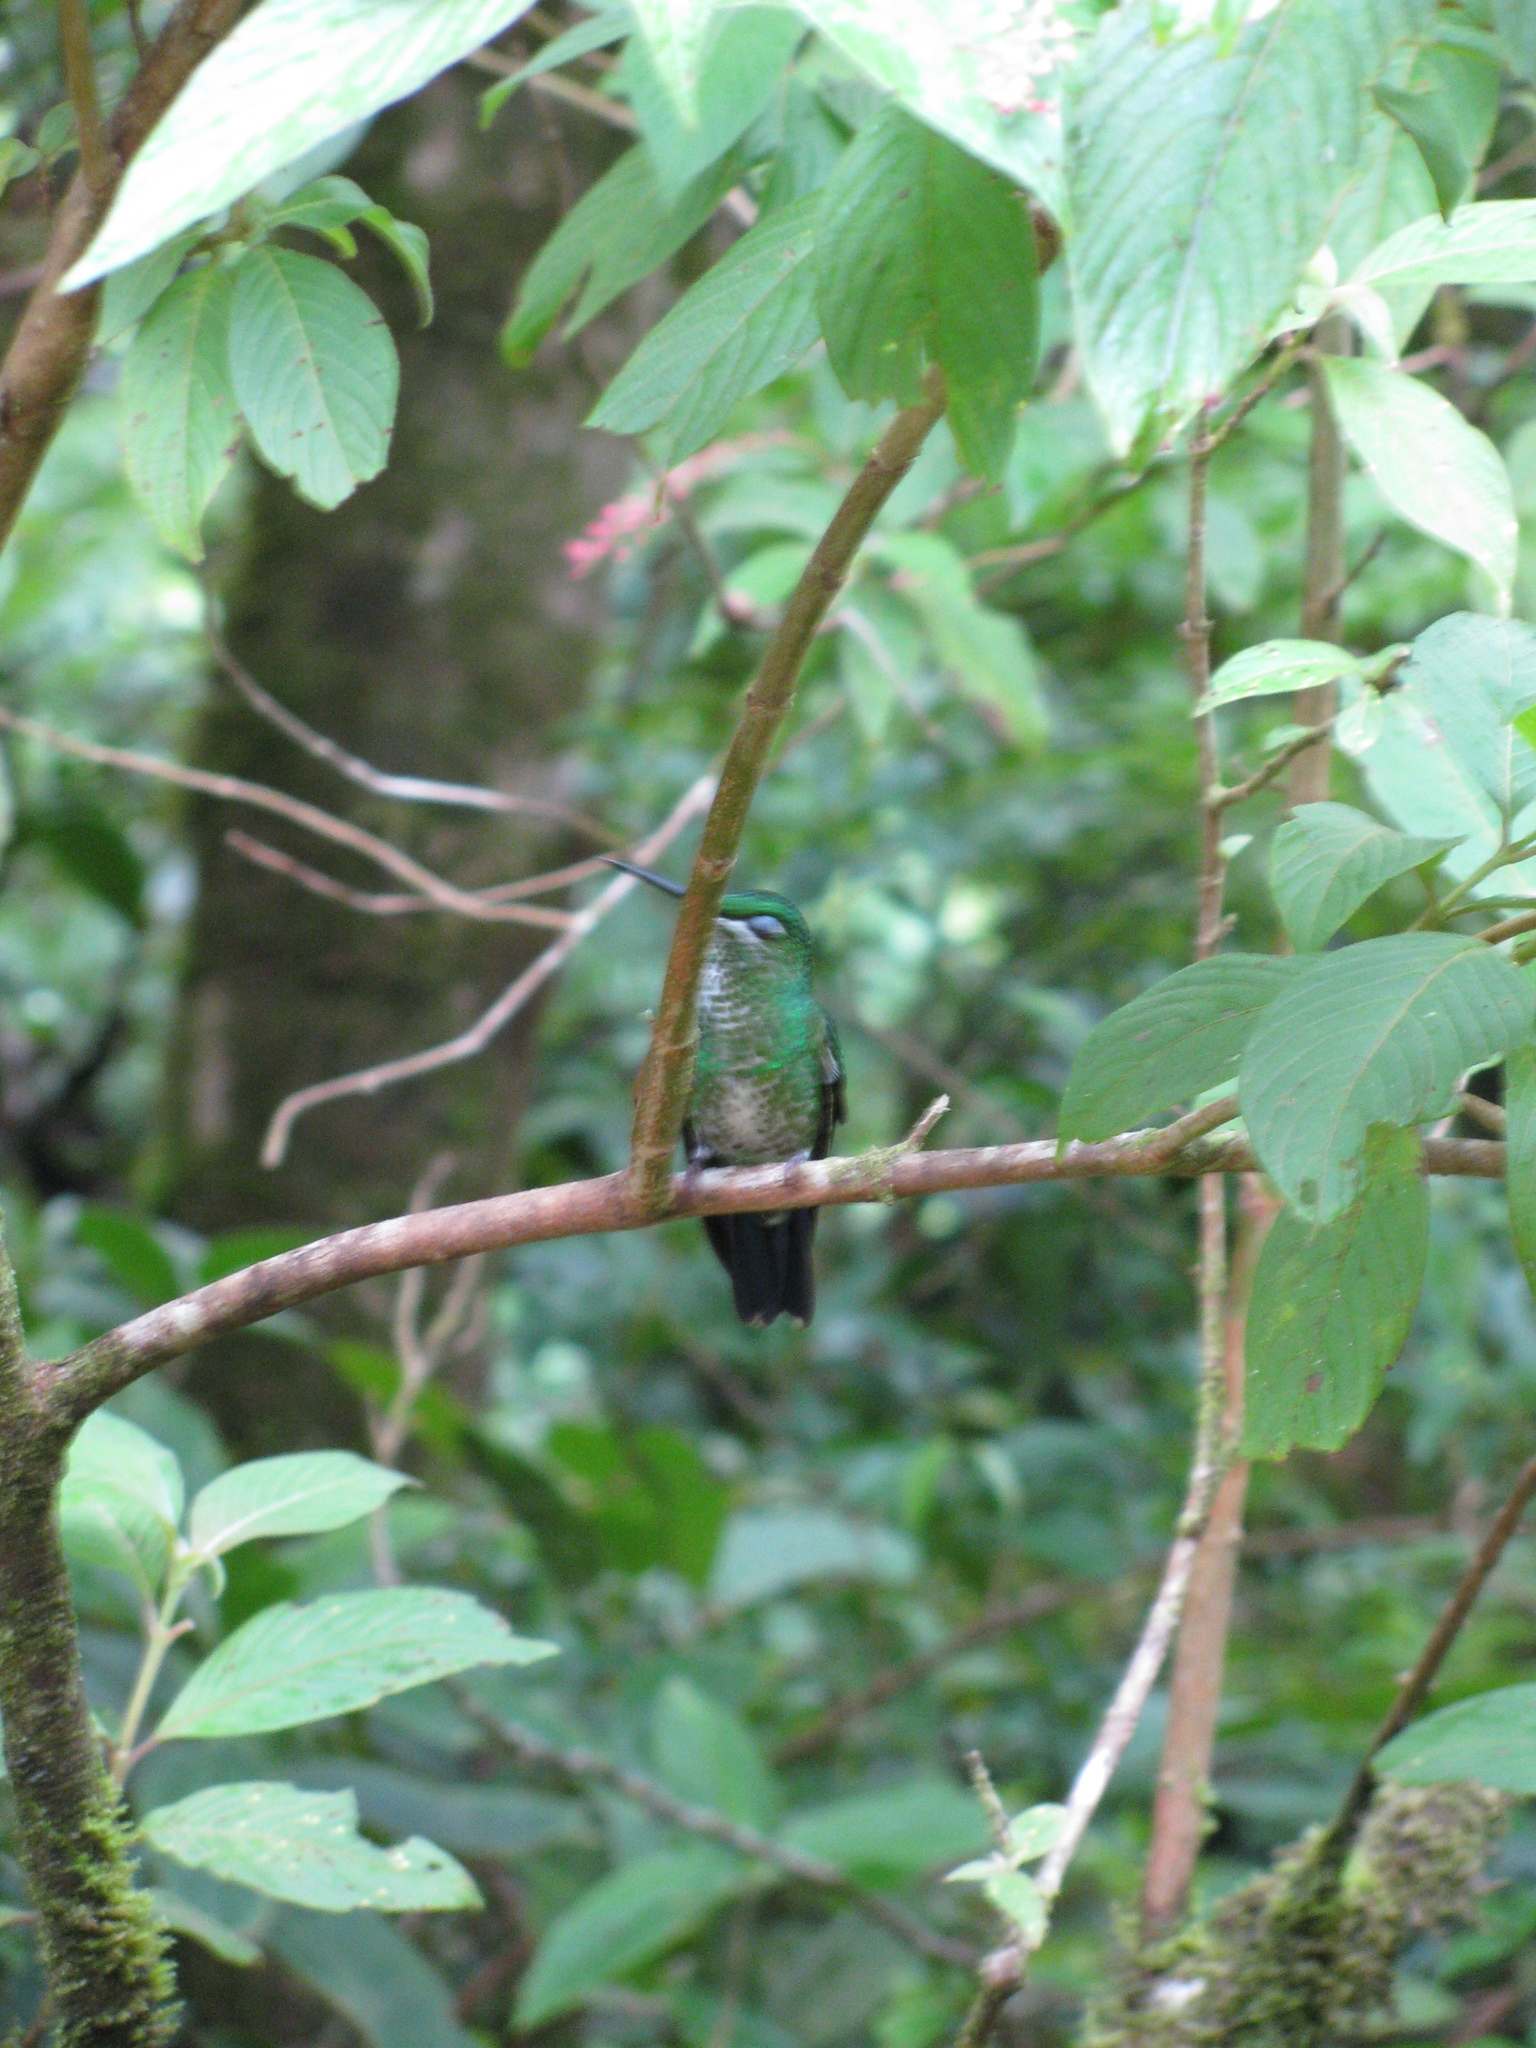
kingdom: Animalia
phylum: Chordata
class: Aves
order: Apodiformes
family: Trochilidae
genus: Heliodoxa
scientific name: Heliodoxa jacula
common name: Green-crowned brilliant
